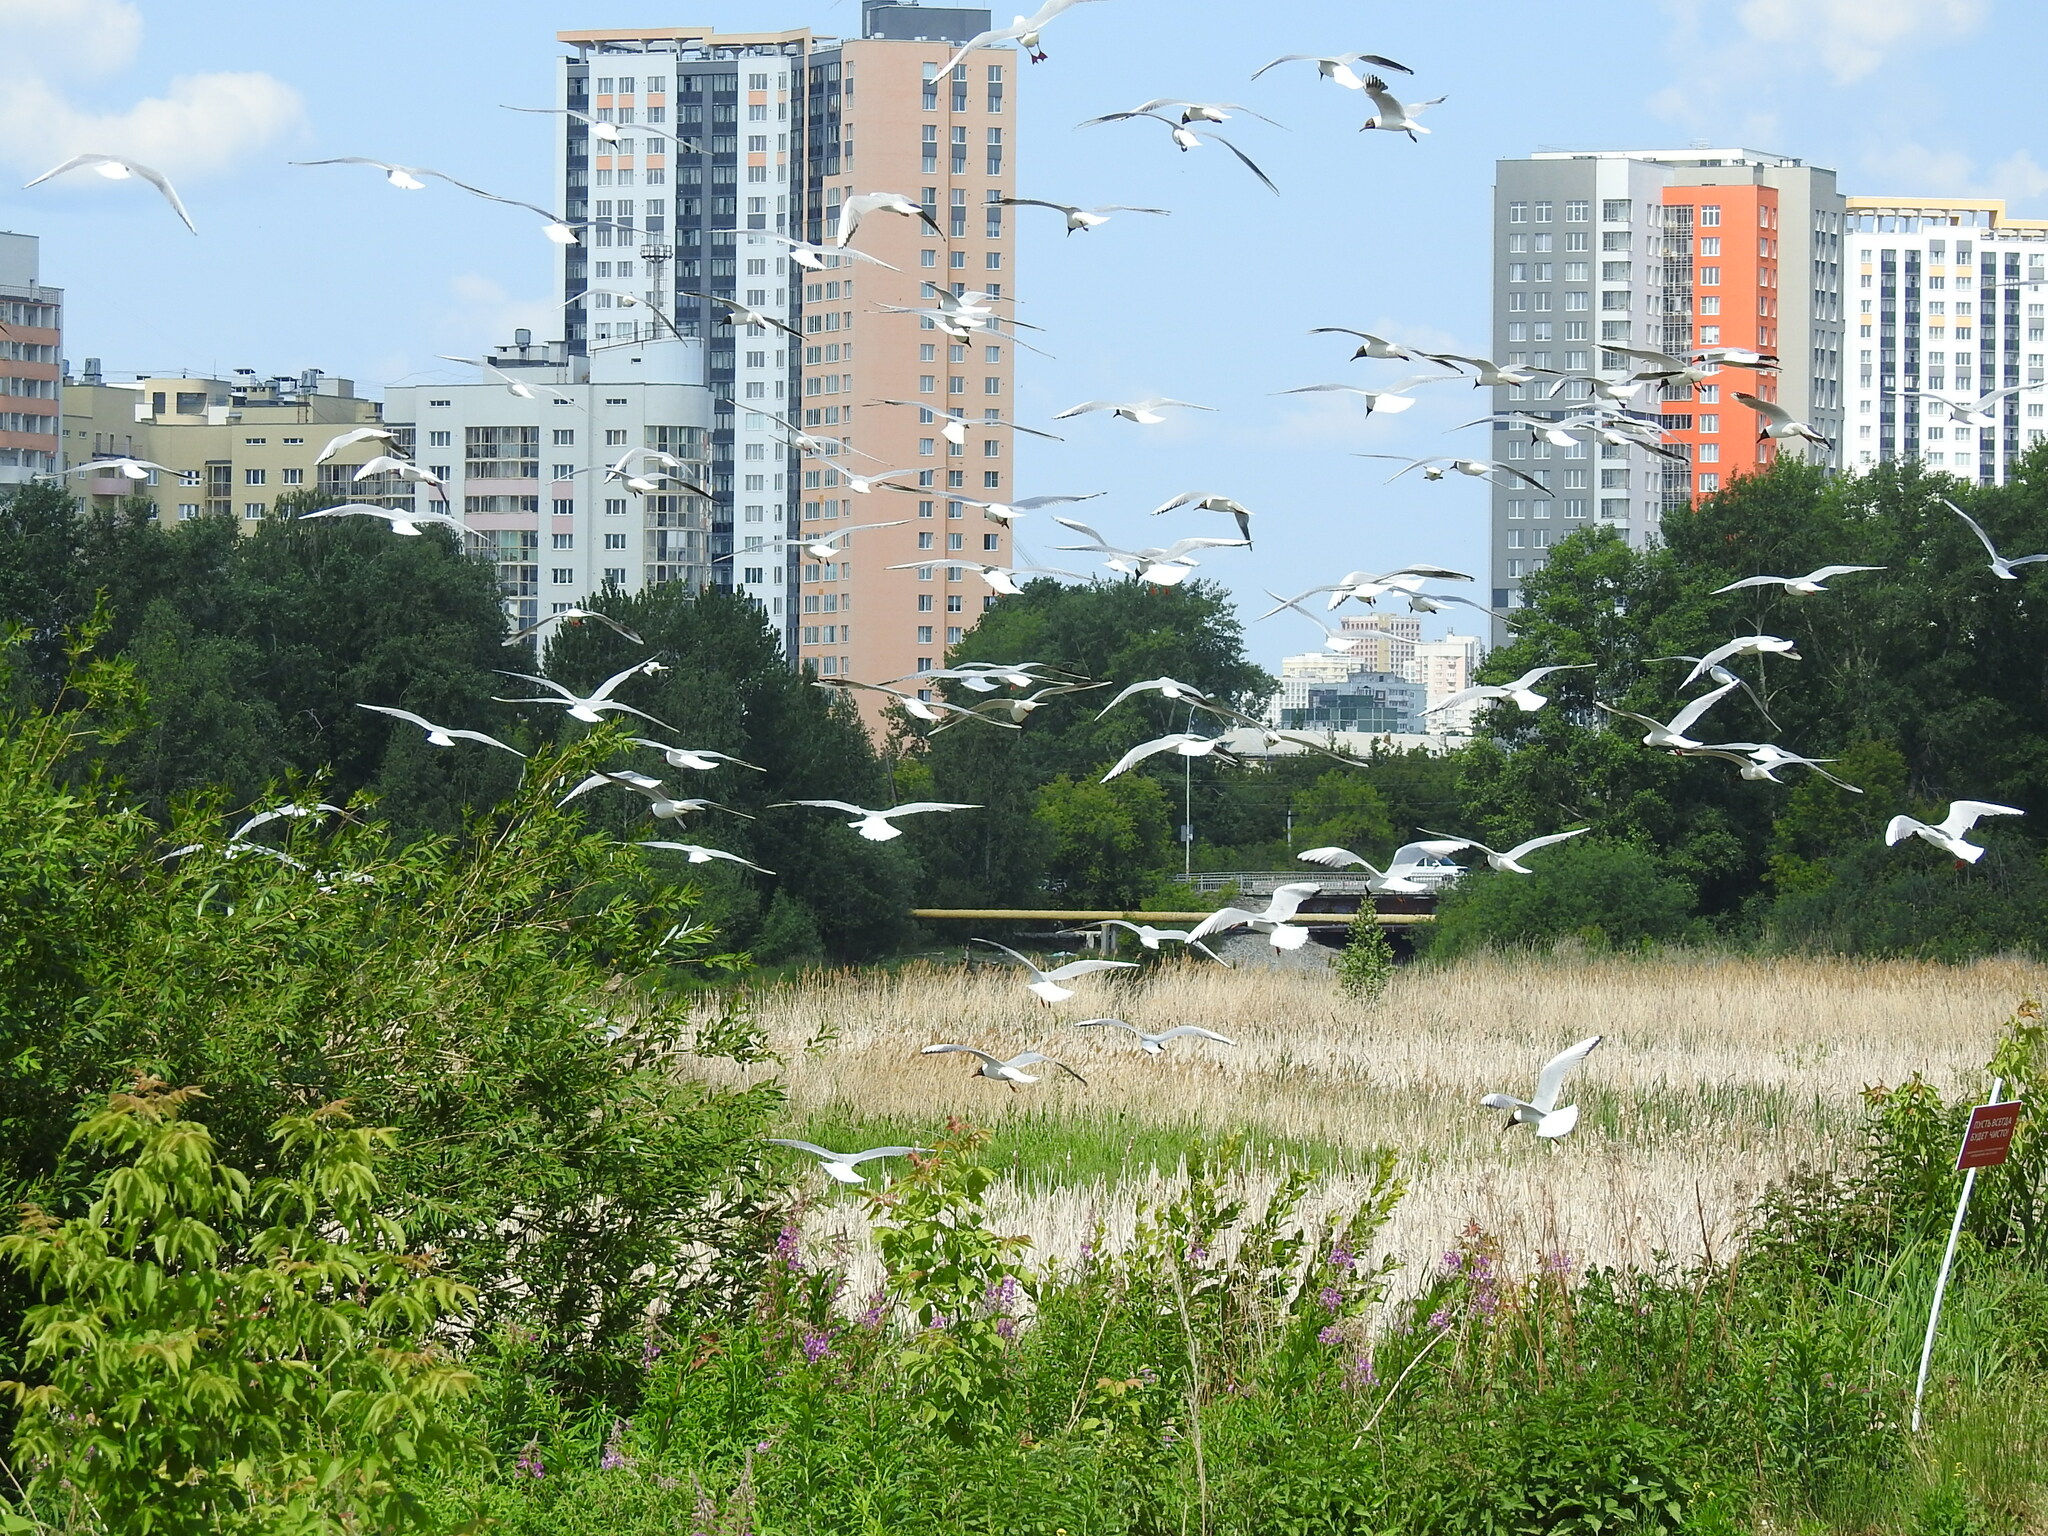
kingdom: Animalia
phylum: Chordata
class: Aves
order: Charadriiformes
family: Laridae
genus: Chroicocephalus
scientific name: Chroicocephalus ridibundus
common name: Black-headed gull
